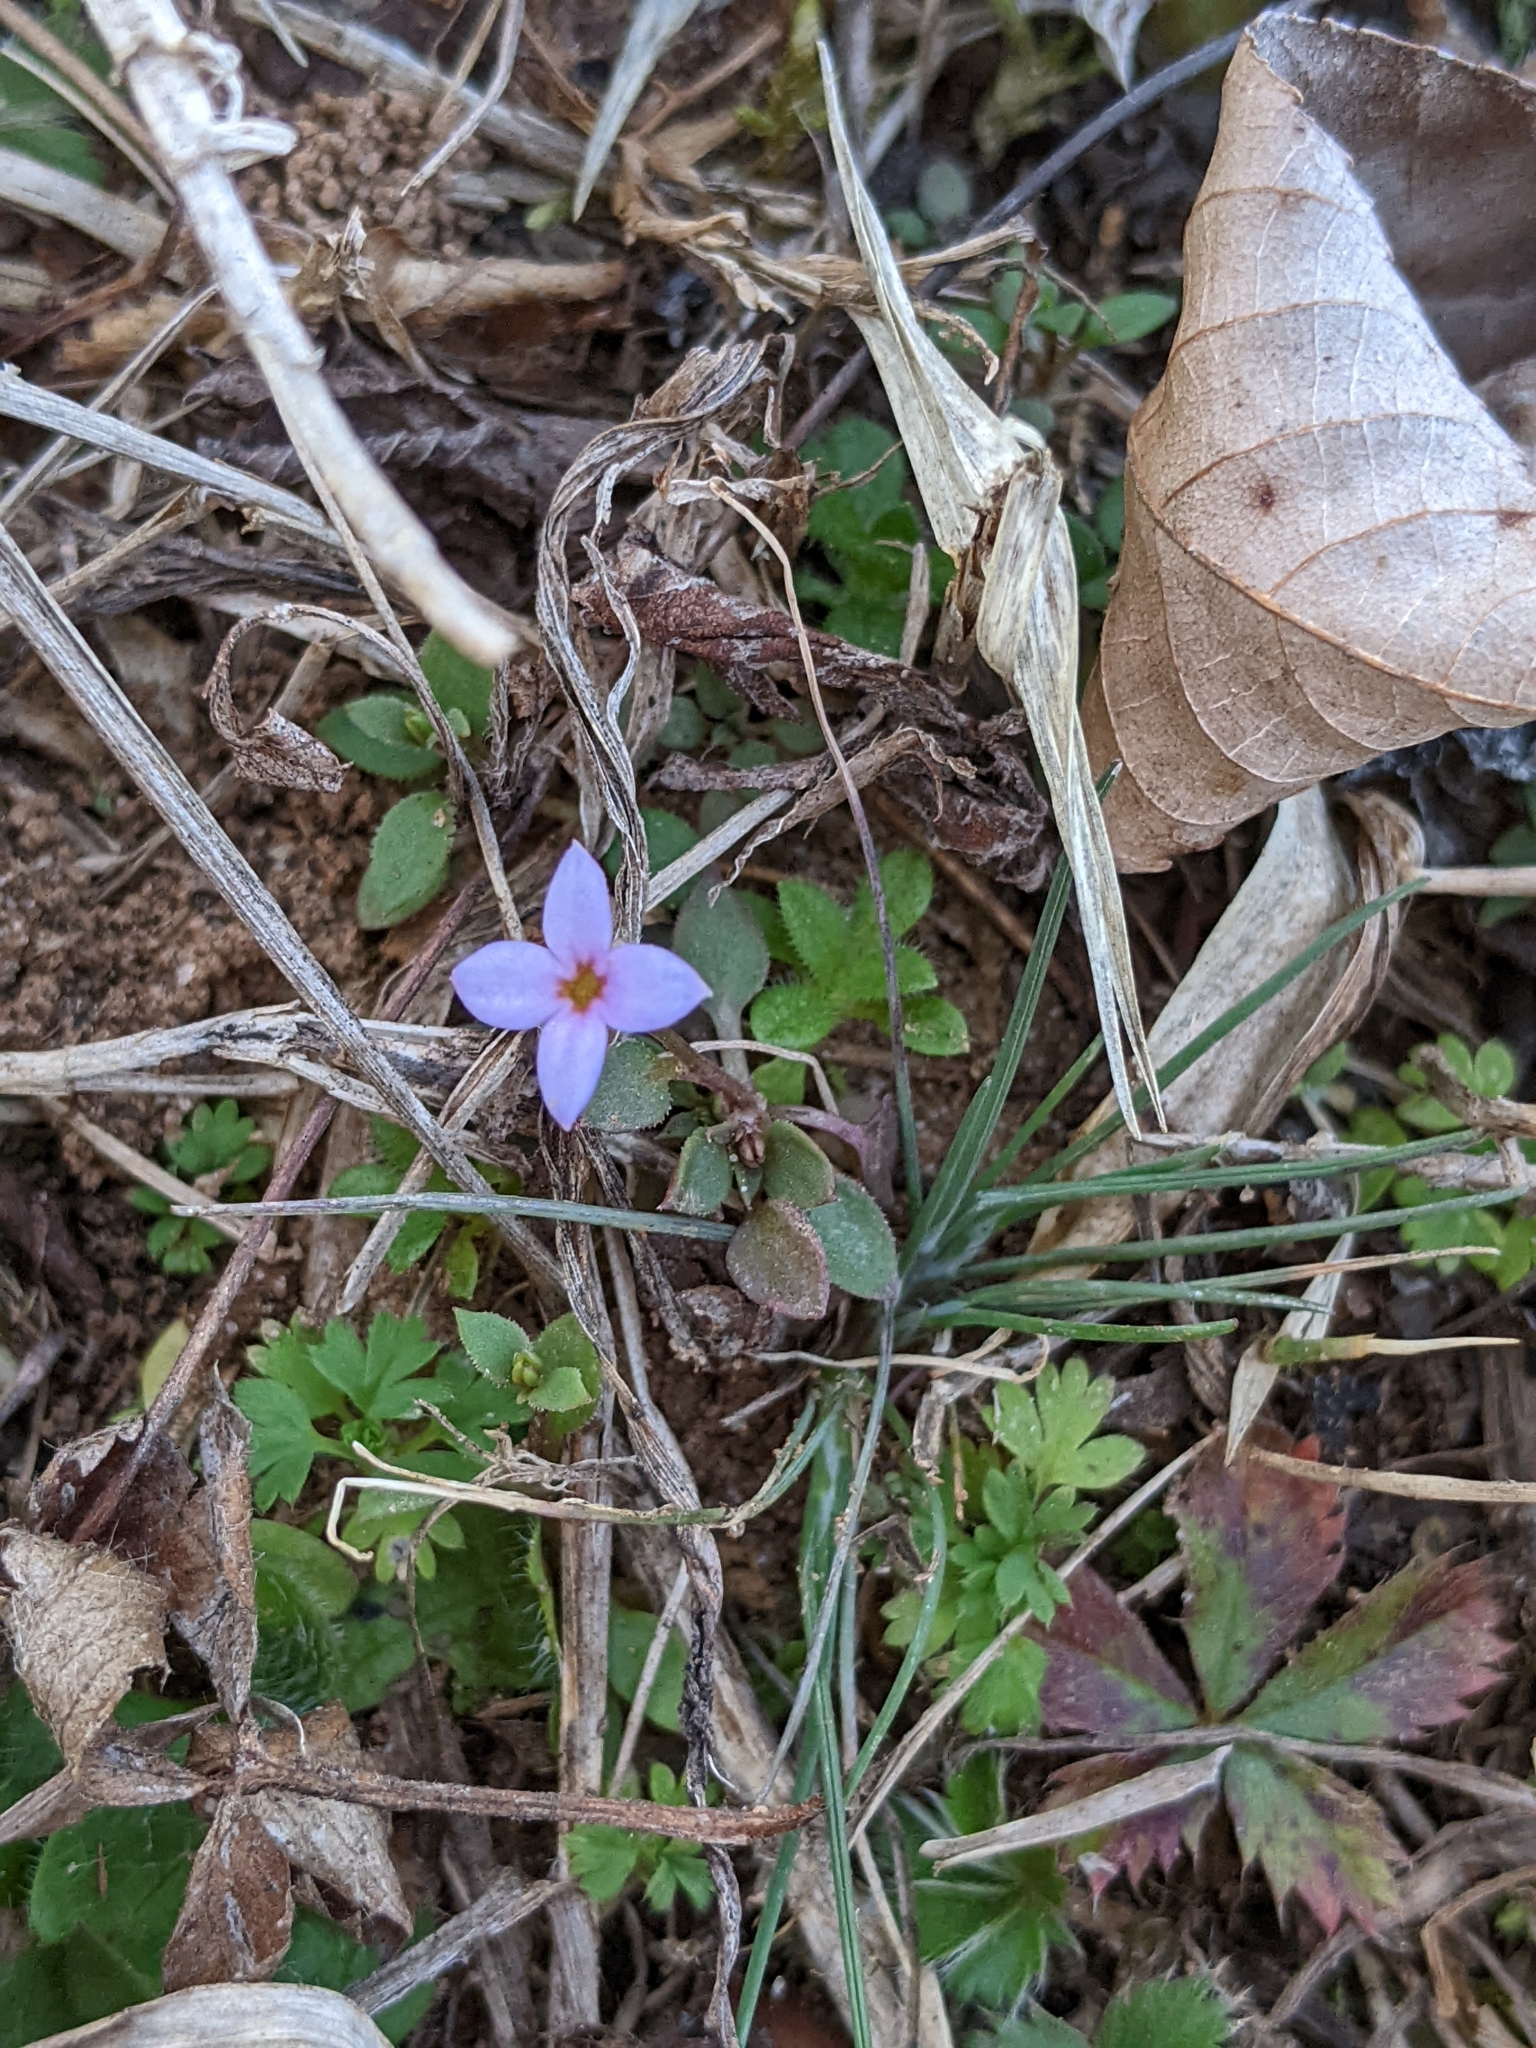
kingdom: Plantae
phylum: Tracheophyta
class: Magnoliopsida
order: Gentianales
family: Rubiaceae
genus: Houstonia
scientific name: Houstonia pusilla
